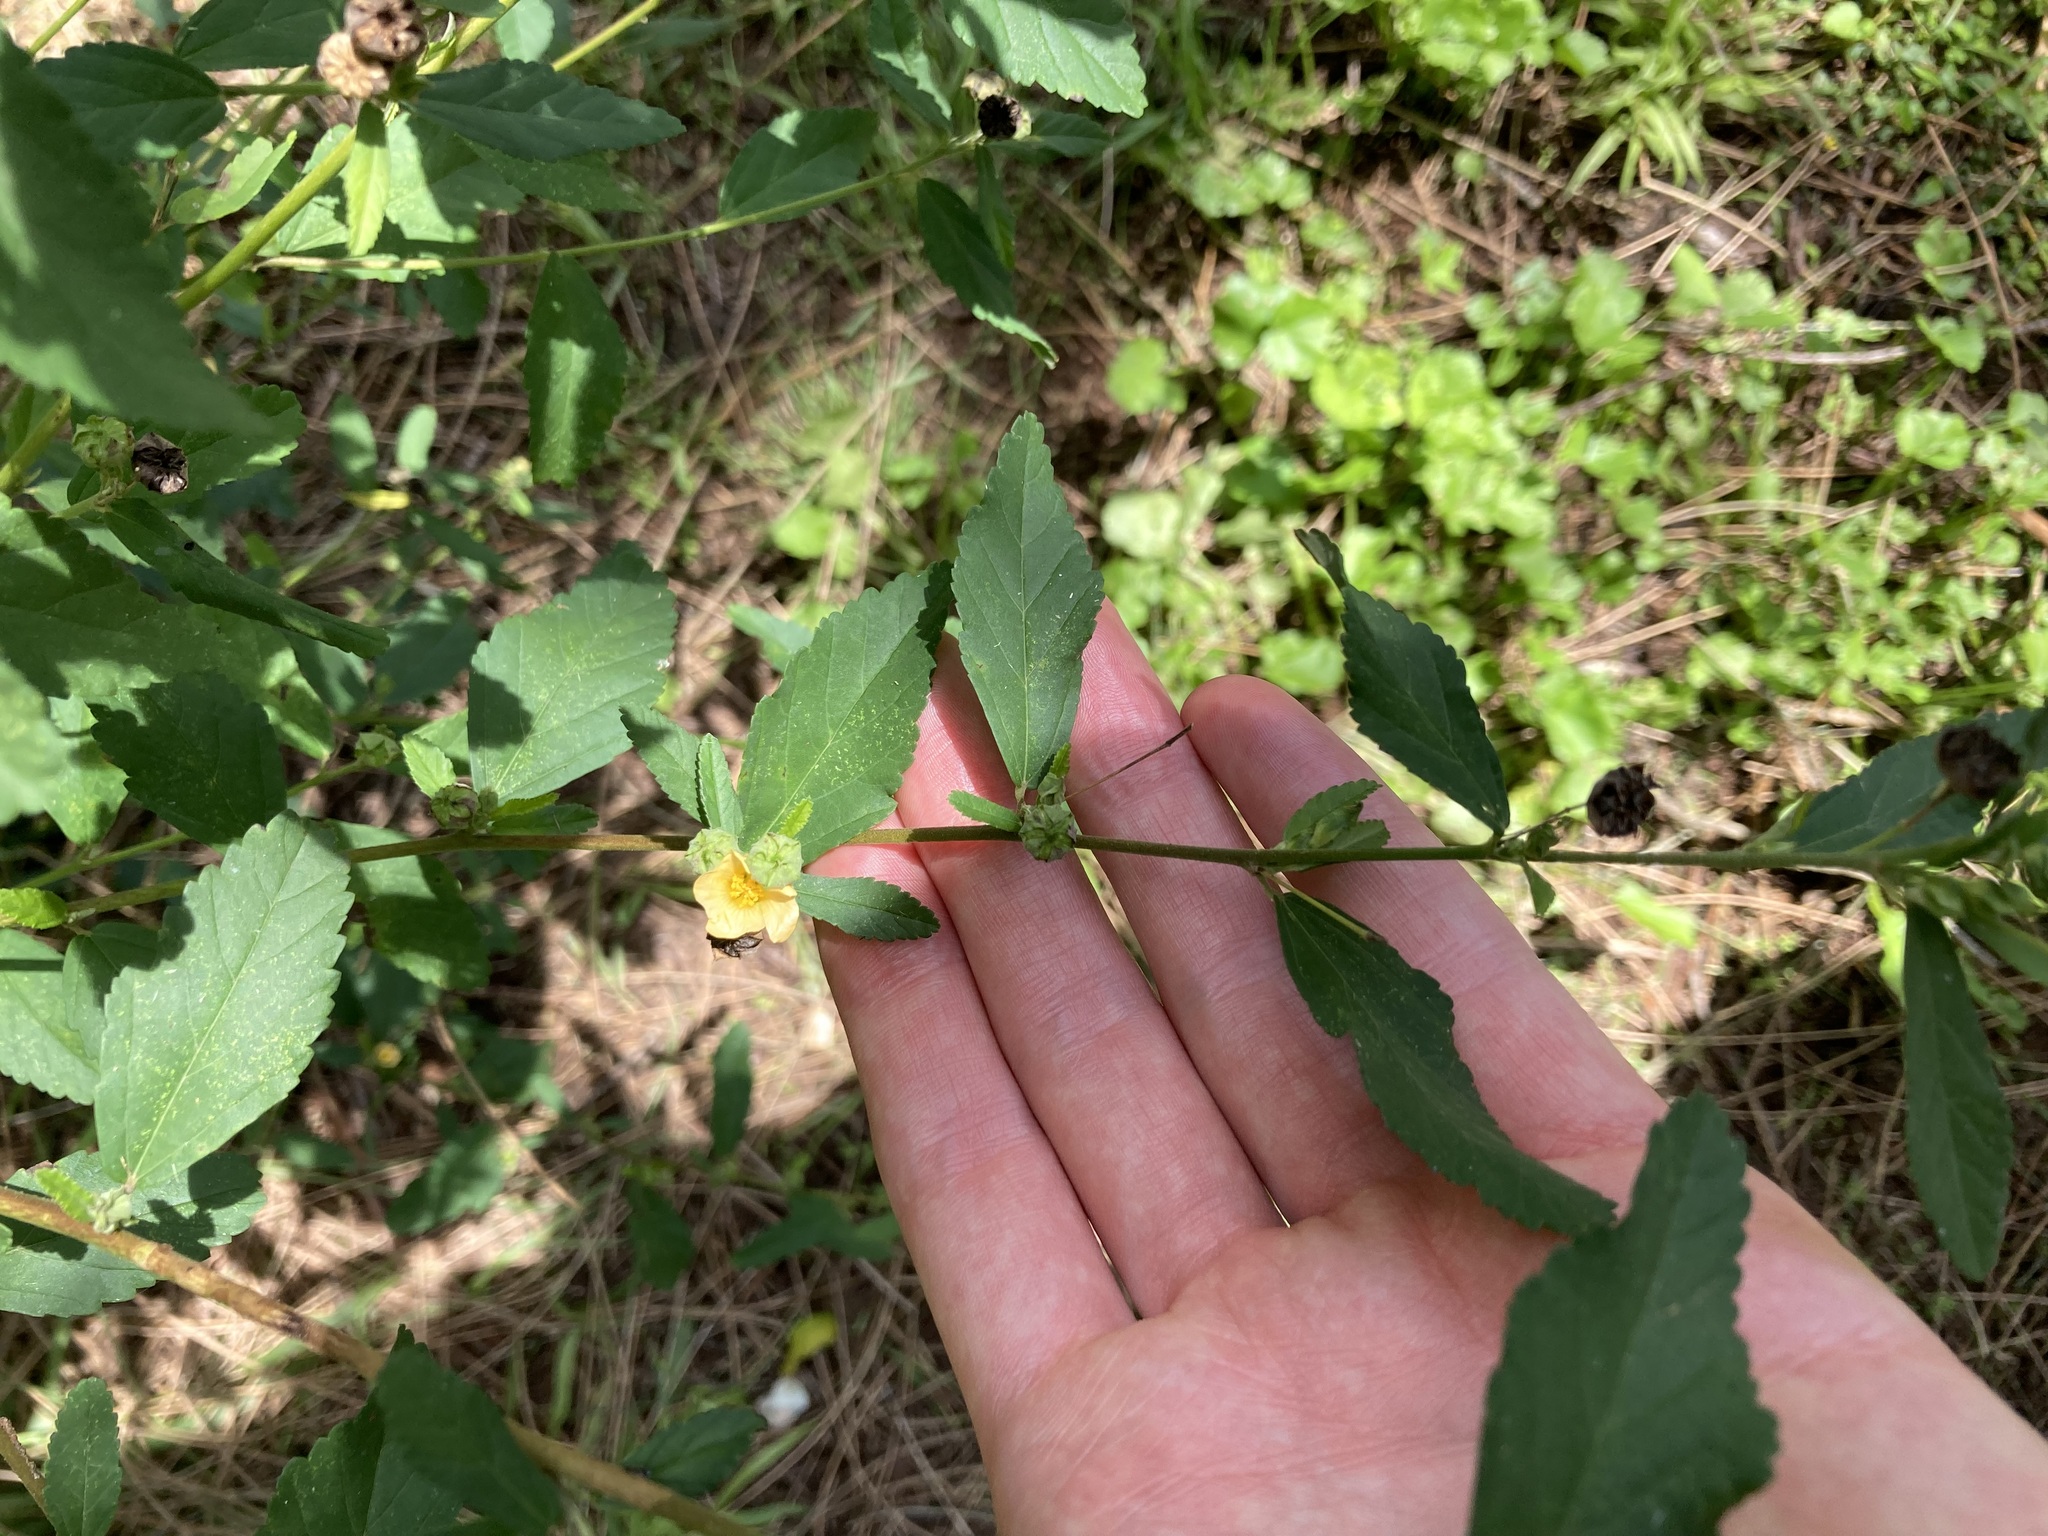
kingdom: Plantae
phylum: Tracheophyta
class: Magnoliopsida
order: Malvales
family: Malvaceae
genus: Sida
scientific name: Sida rhombifolia
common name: Queensland-hemp
